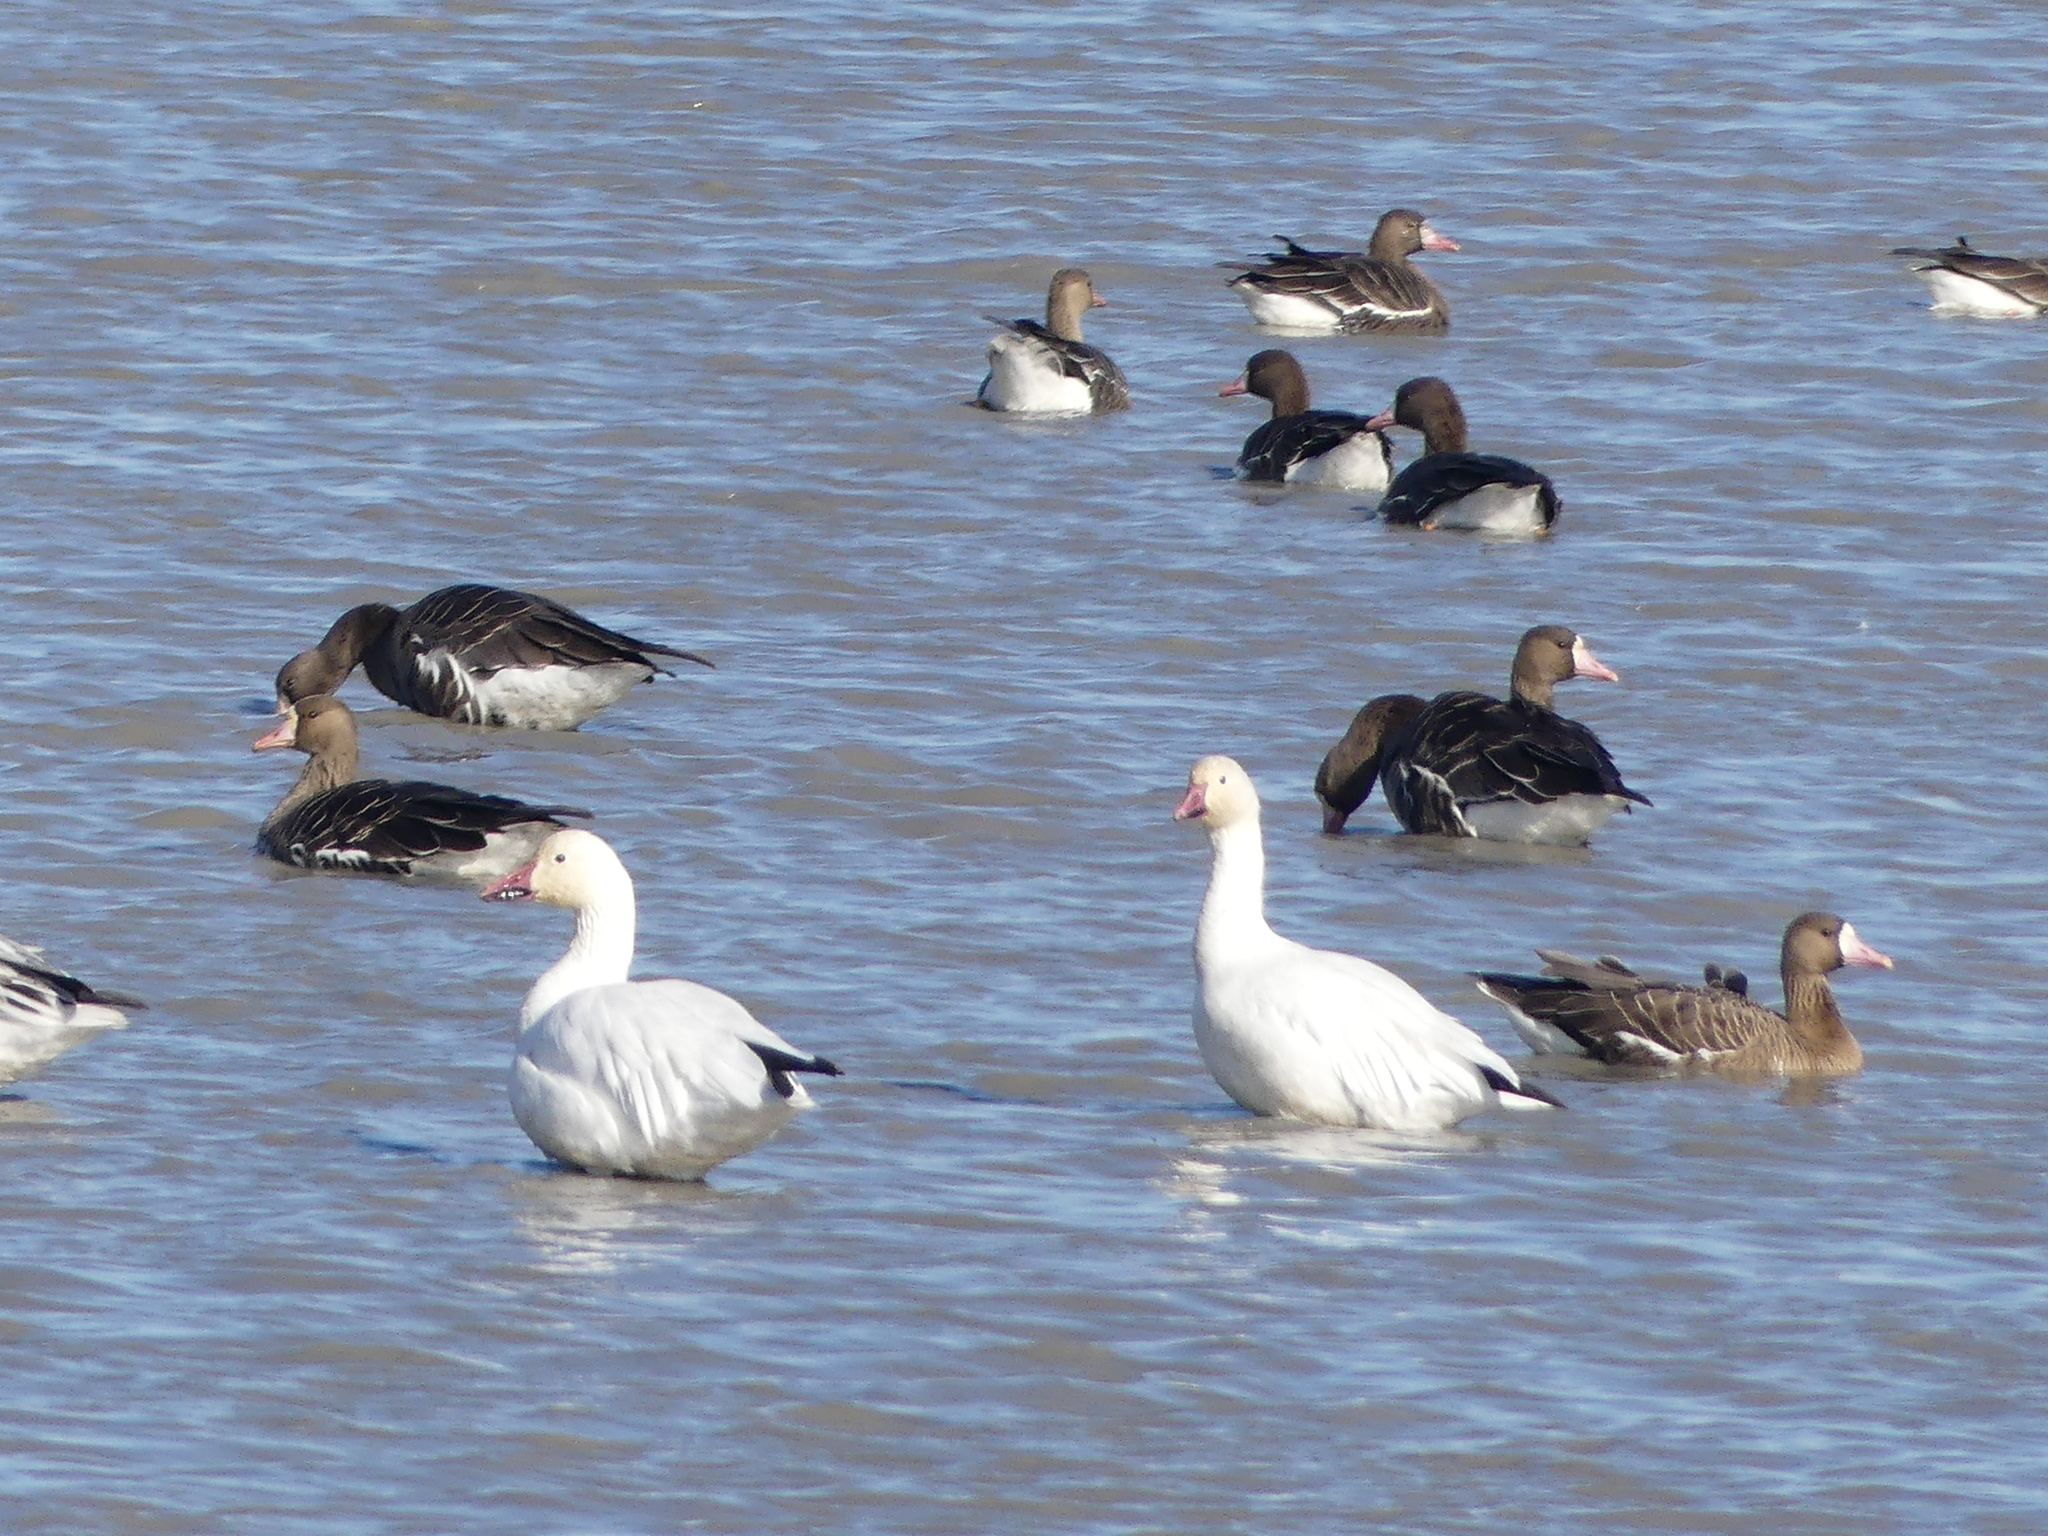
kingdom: Animalia
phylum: Chordata
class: Aves
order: Anseriformes
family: Anatidae
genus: Anser
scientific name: Anser caerulescens
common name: Snow goose
